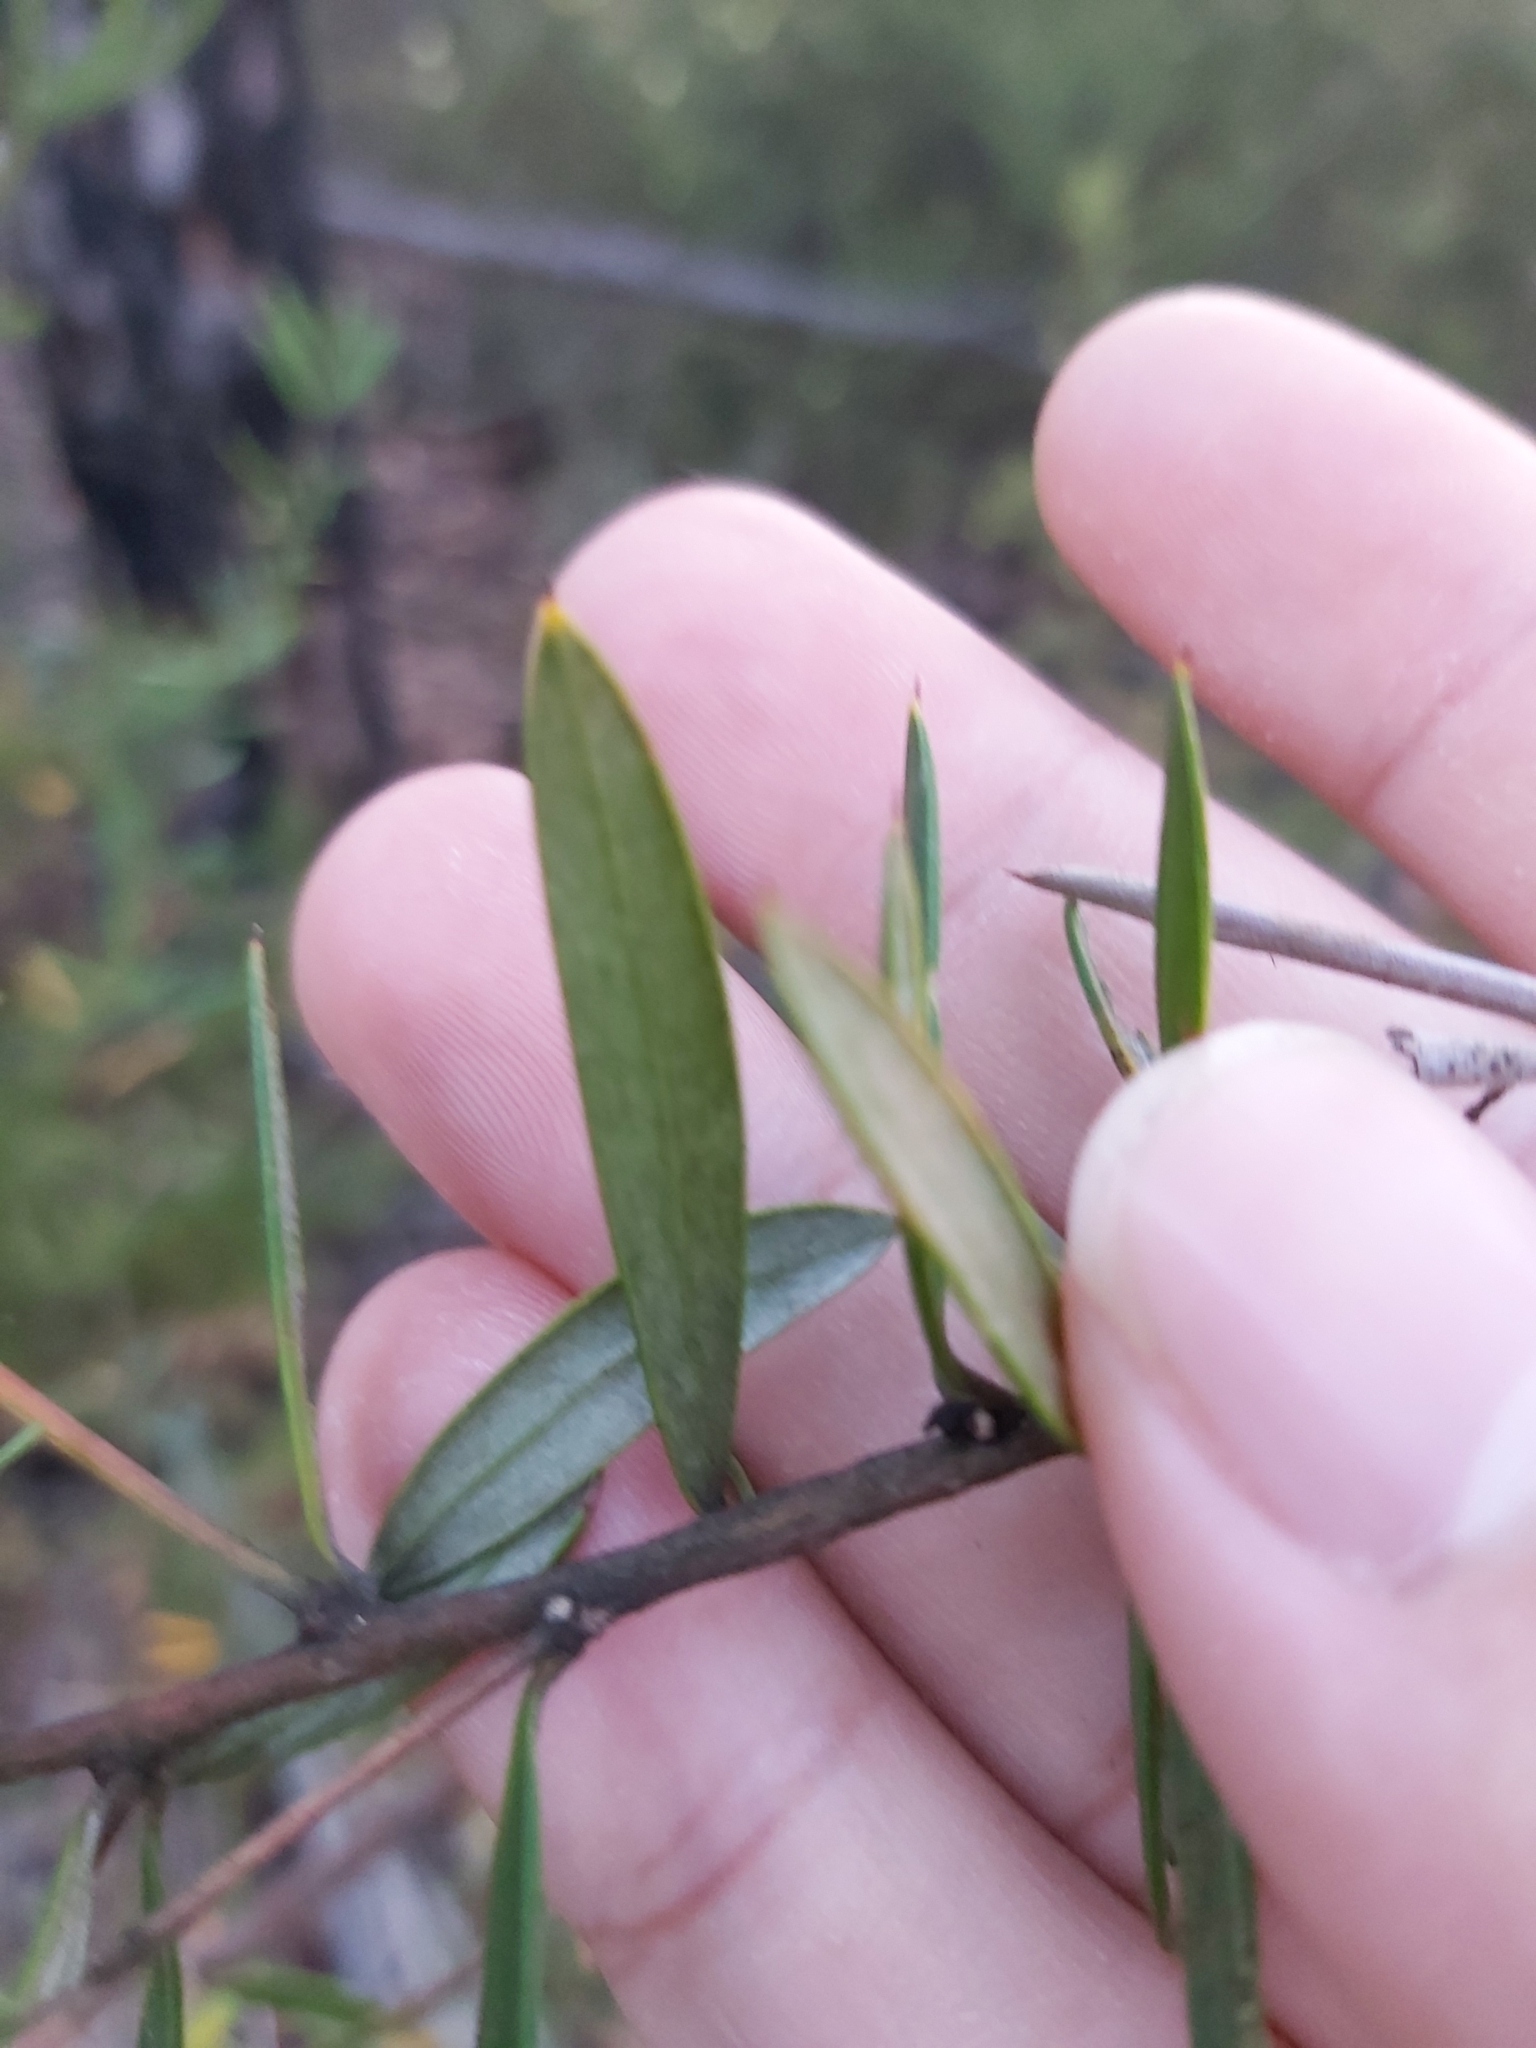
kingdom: Plantae
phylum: Tracheophyta
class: Magnoliopsida
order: Proteales
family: Proteaceae
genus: Grevillea
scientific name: Grevillea sericea
